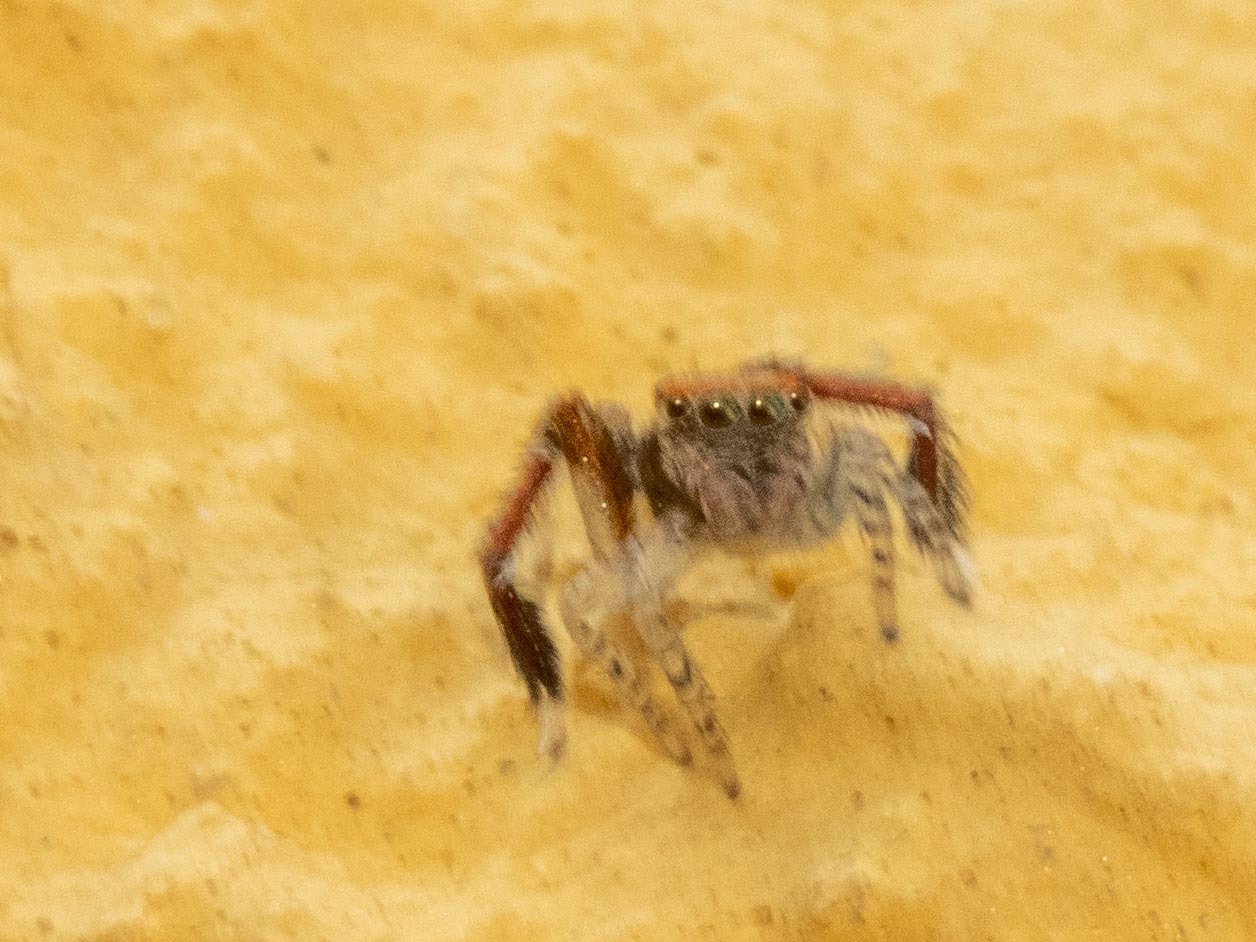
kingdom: Animalia
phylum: Arthropoda
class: Arachnida
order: Araneae
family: Salticidae
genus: Saitis
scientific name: Saitis barbipes
